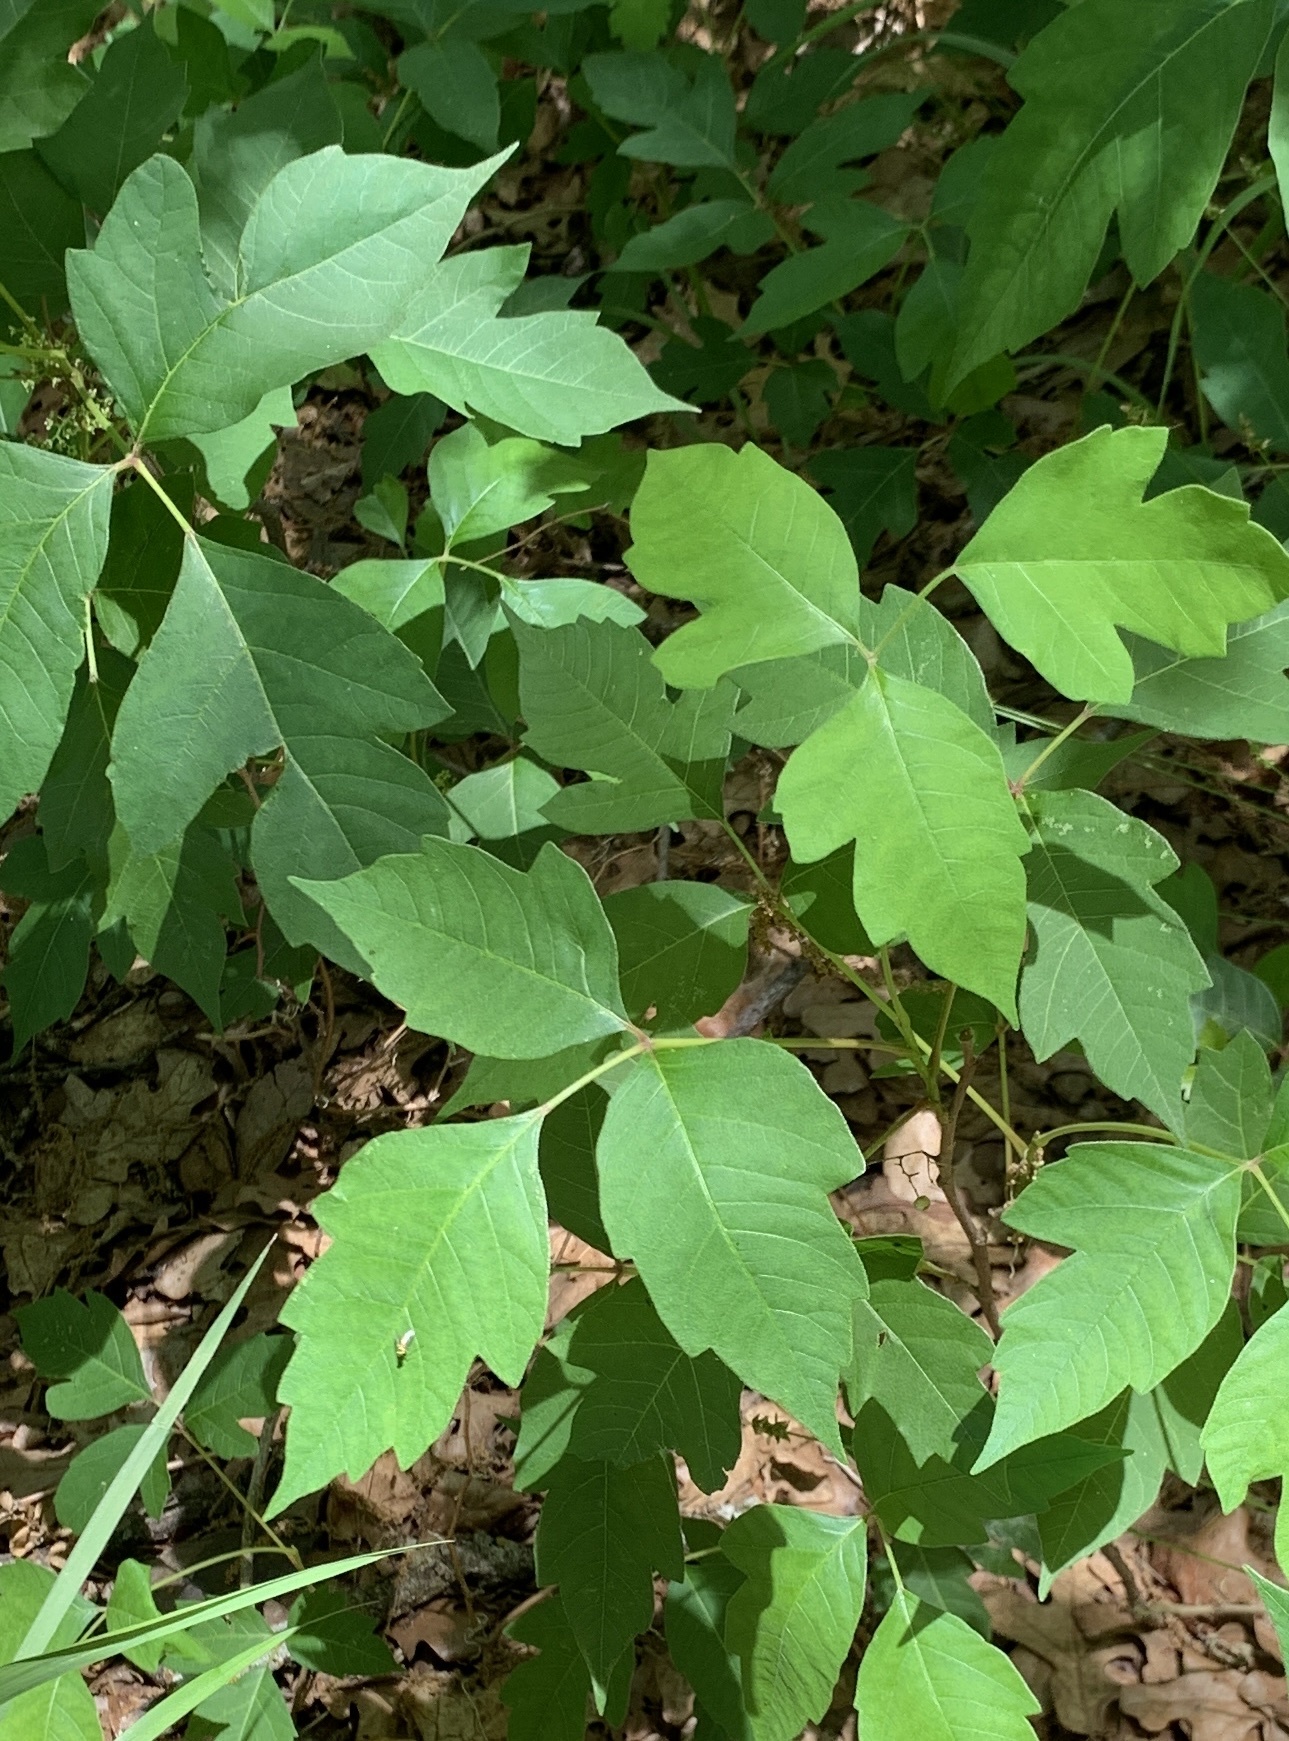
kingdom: Plantae
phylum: Tracheophyta
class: Magnoliopsida
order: Sapindales
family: Anacardiaceae
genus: Toxicodendron
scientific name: Toxicodendron radicans
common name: Poison ivy
